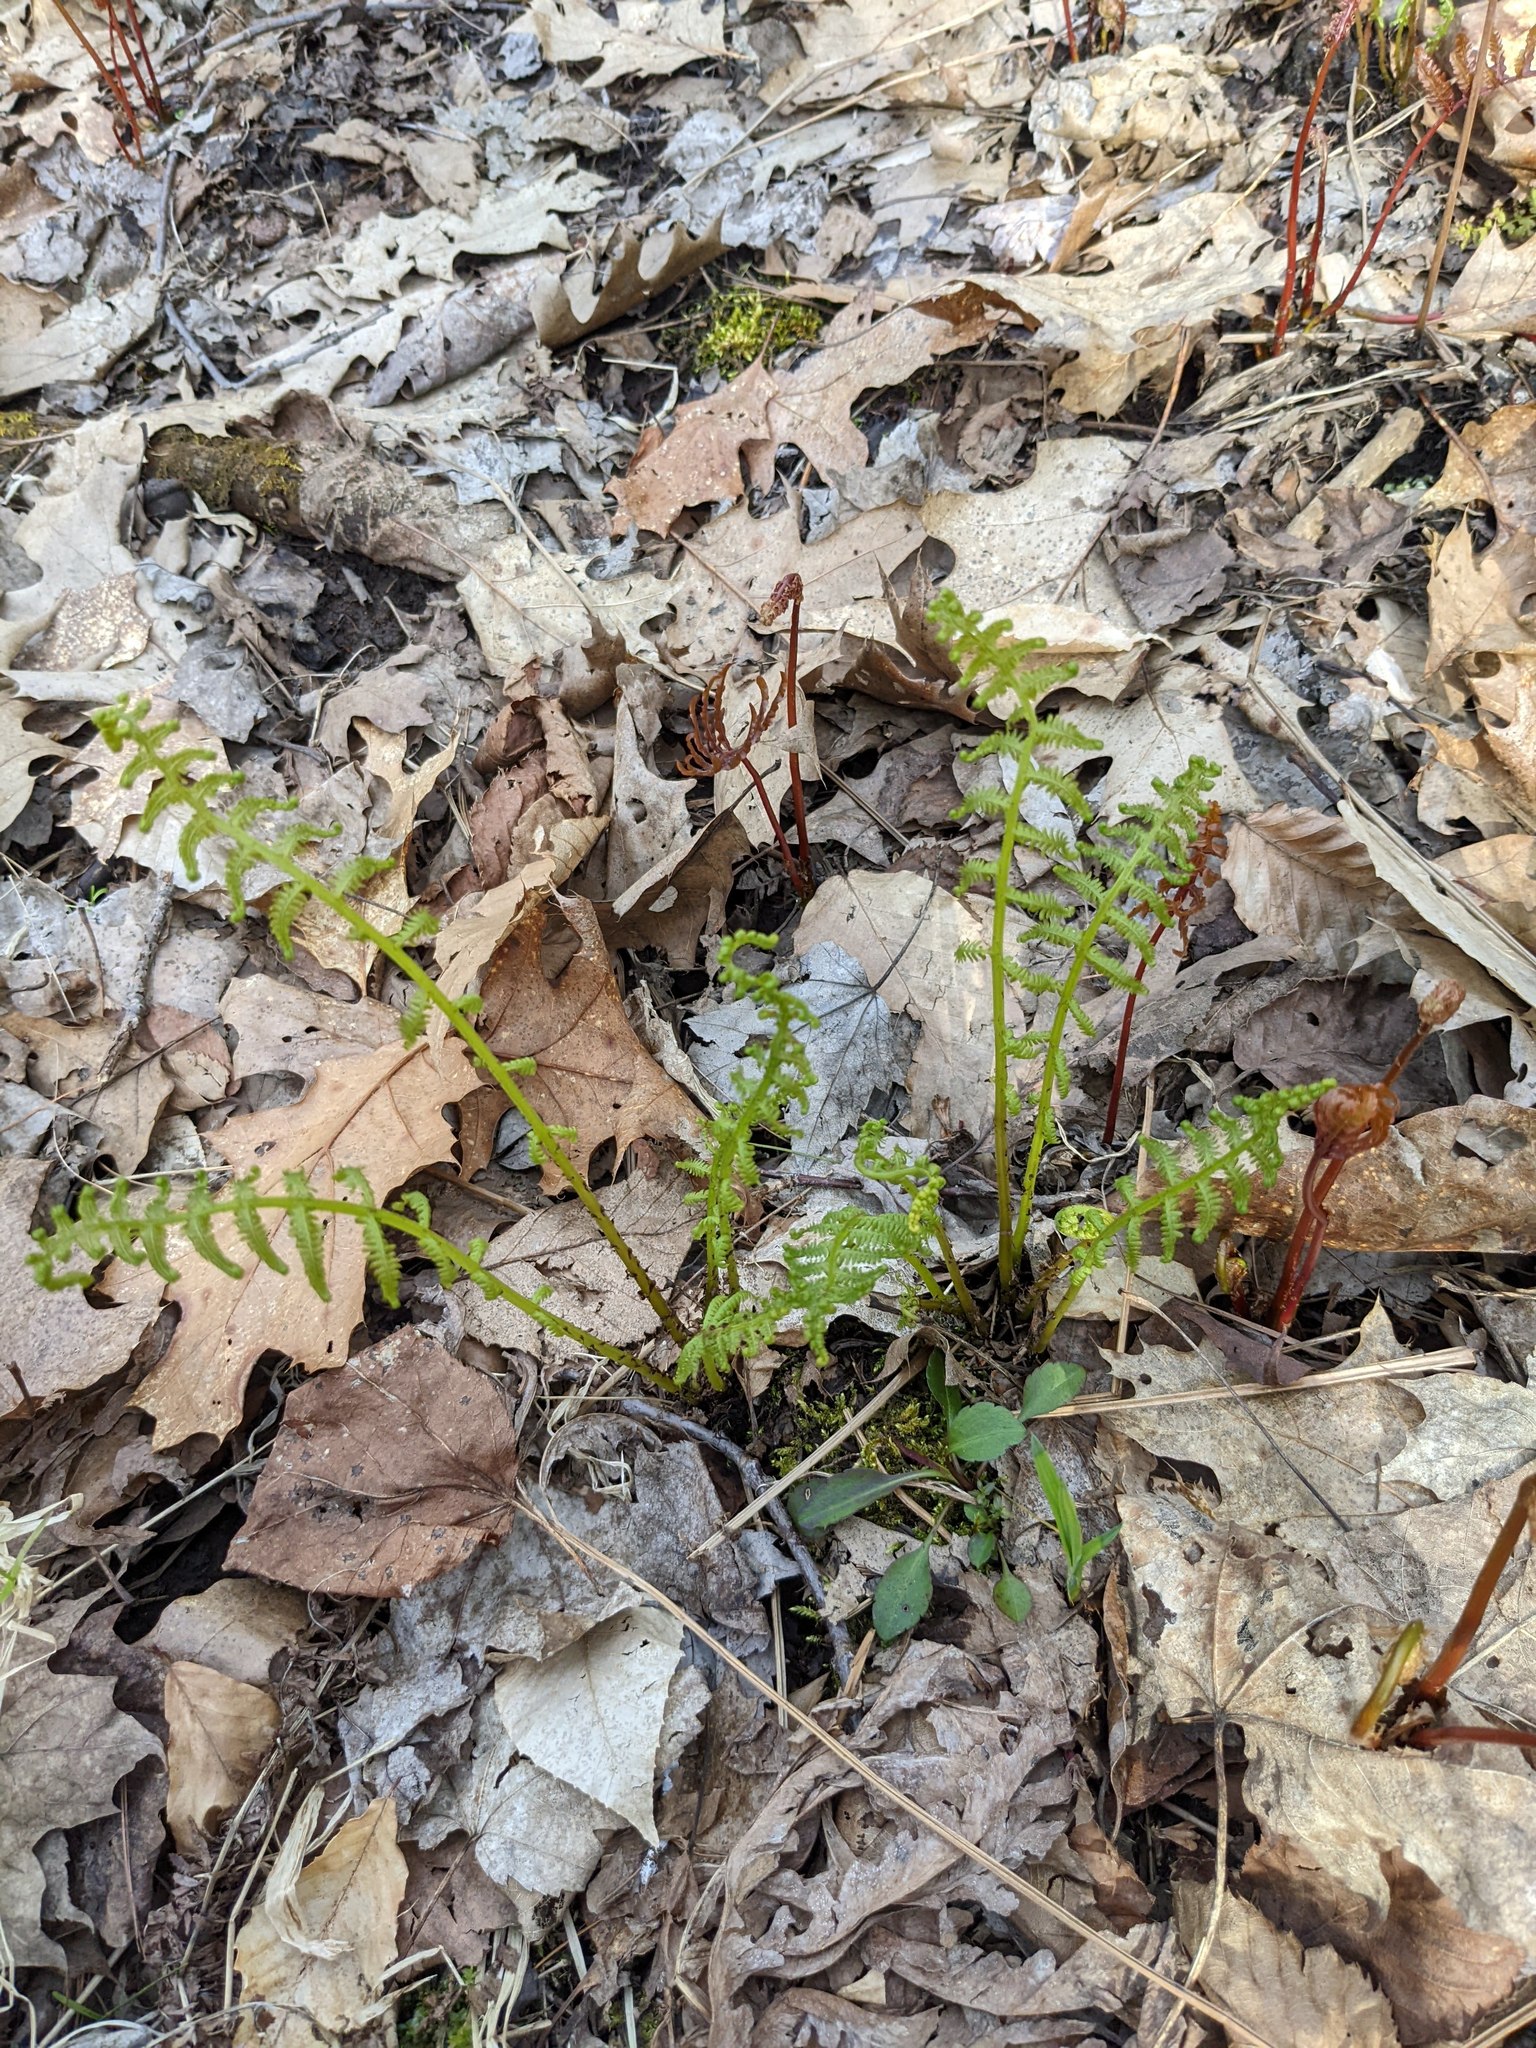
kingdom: Plantae
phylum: Tracheophyta
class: Polypodiopsida
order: Polypodiales
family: Athyriaceae
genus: Athyrium
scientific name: Athyrium angustum
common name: Northern lady fern
